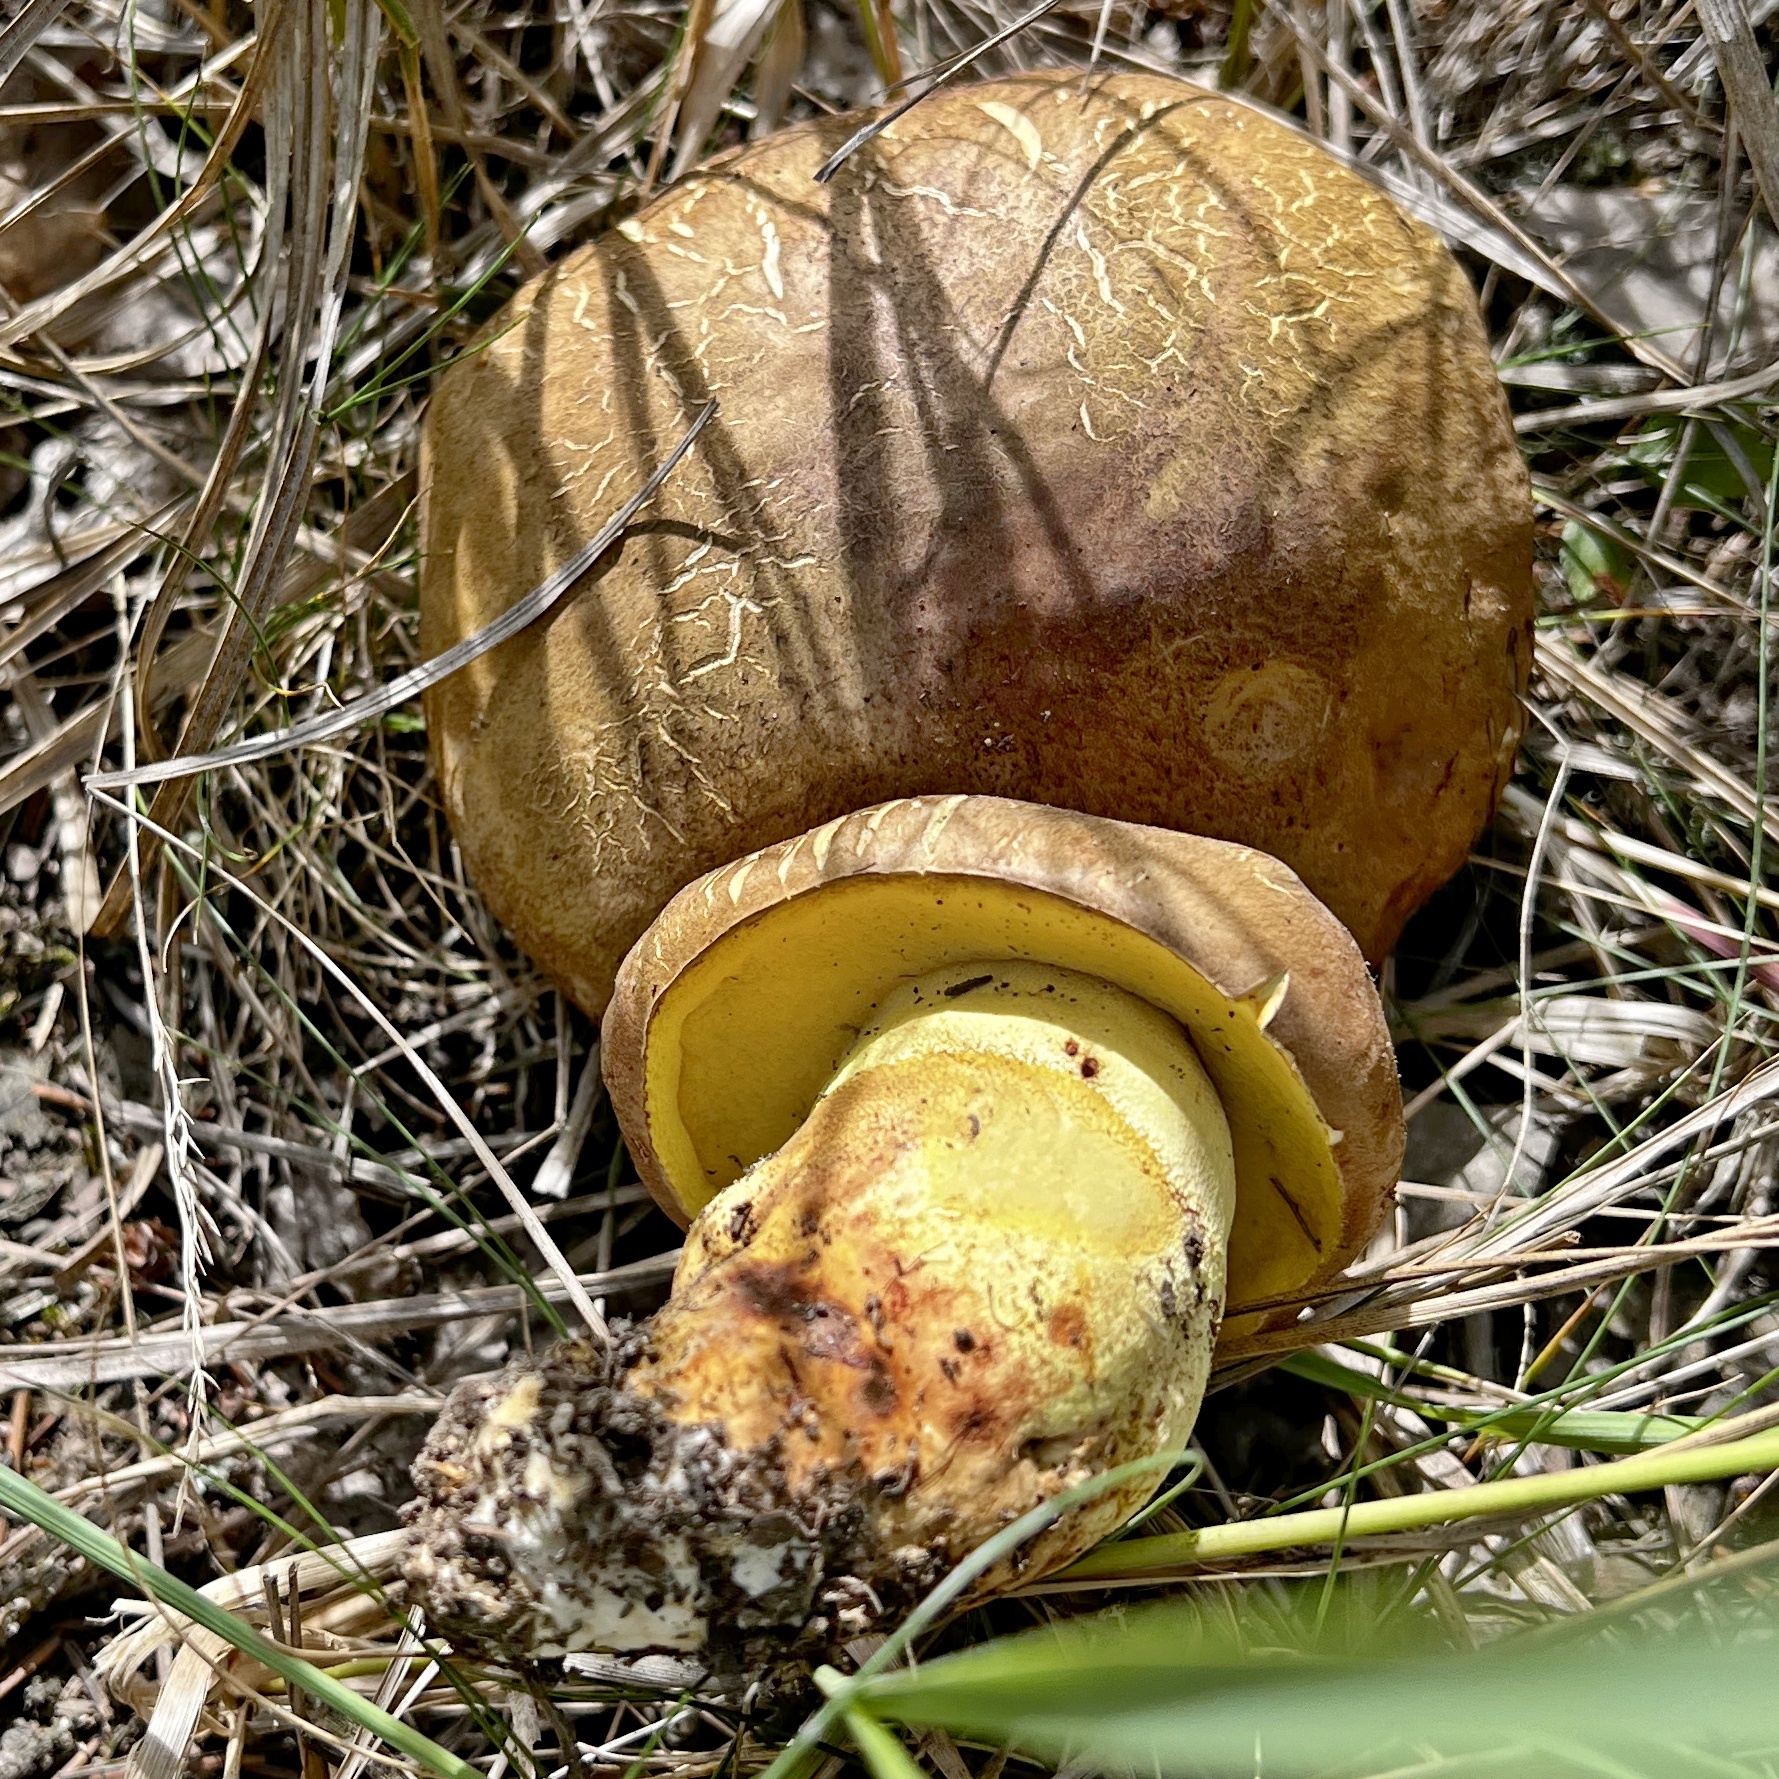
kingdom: Fungi
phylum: Basidiomycota
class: Agaricomycetes
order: Boletales
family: Boletaceae
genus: Butyriboletus
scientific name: Butyriboletus appendiculatus
